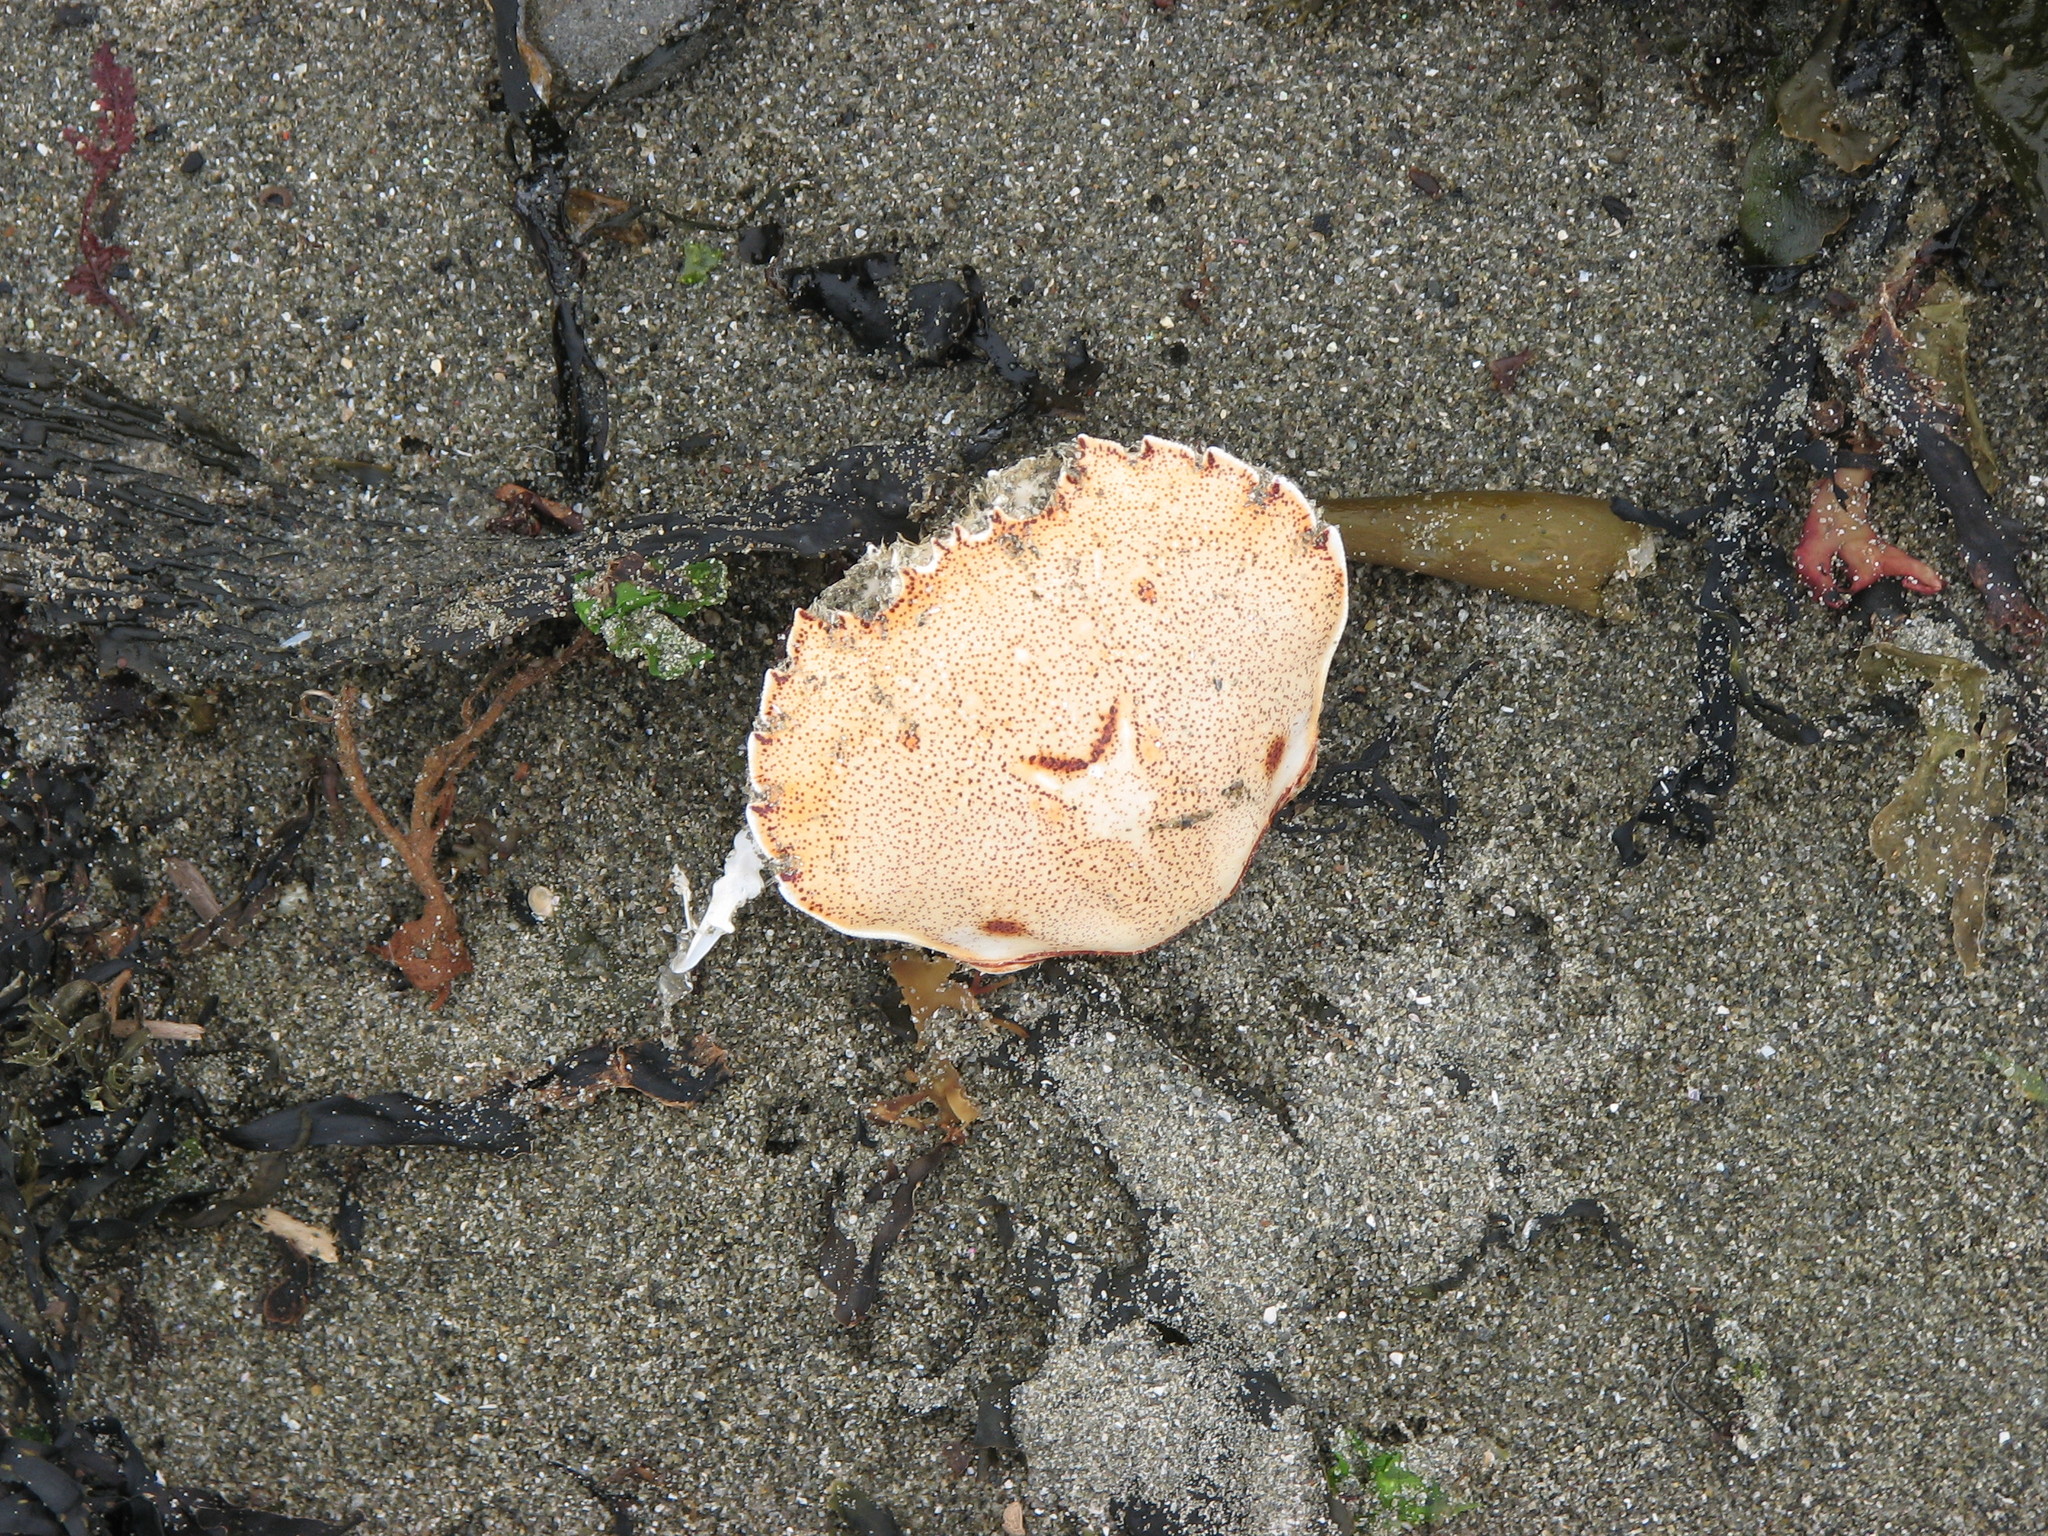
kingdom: Animalia
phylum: Arthropoda
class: Malacostraca
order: Decapoda
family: Ovalipidae
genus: Ovalipes
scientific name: Ovalipes catharus
